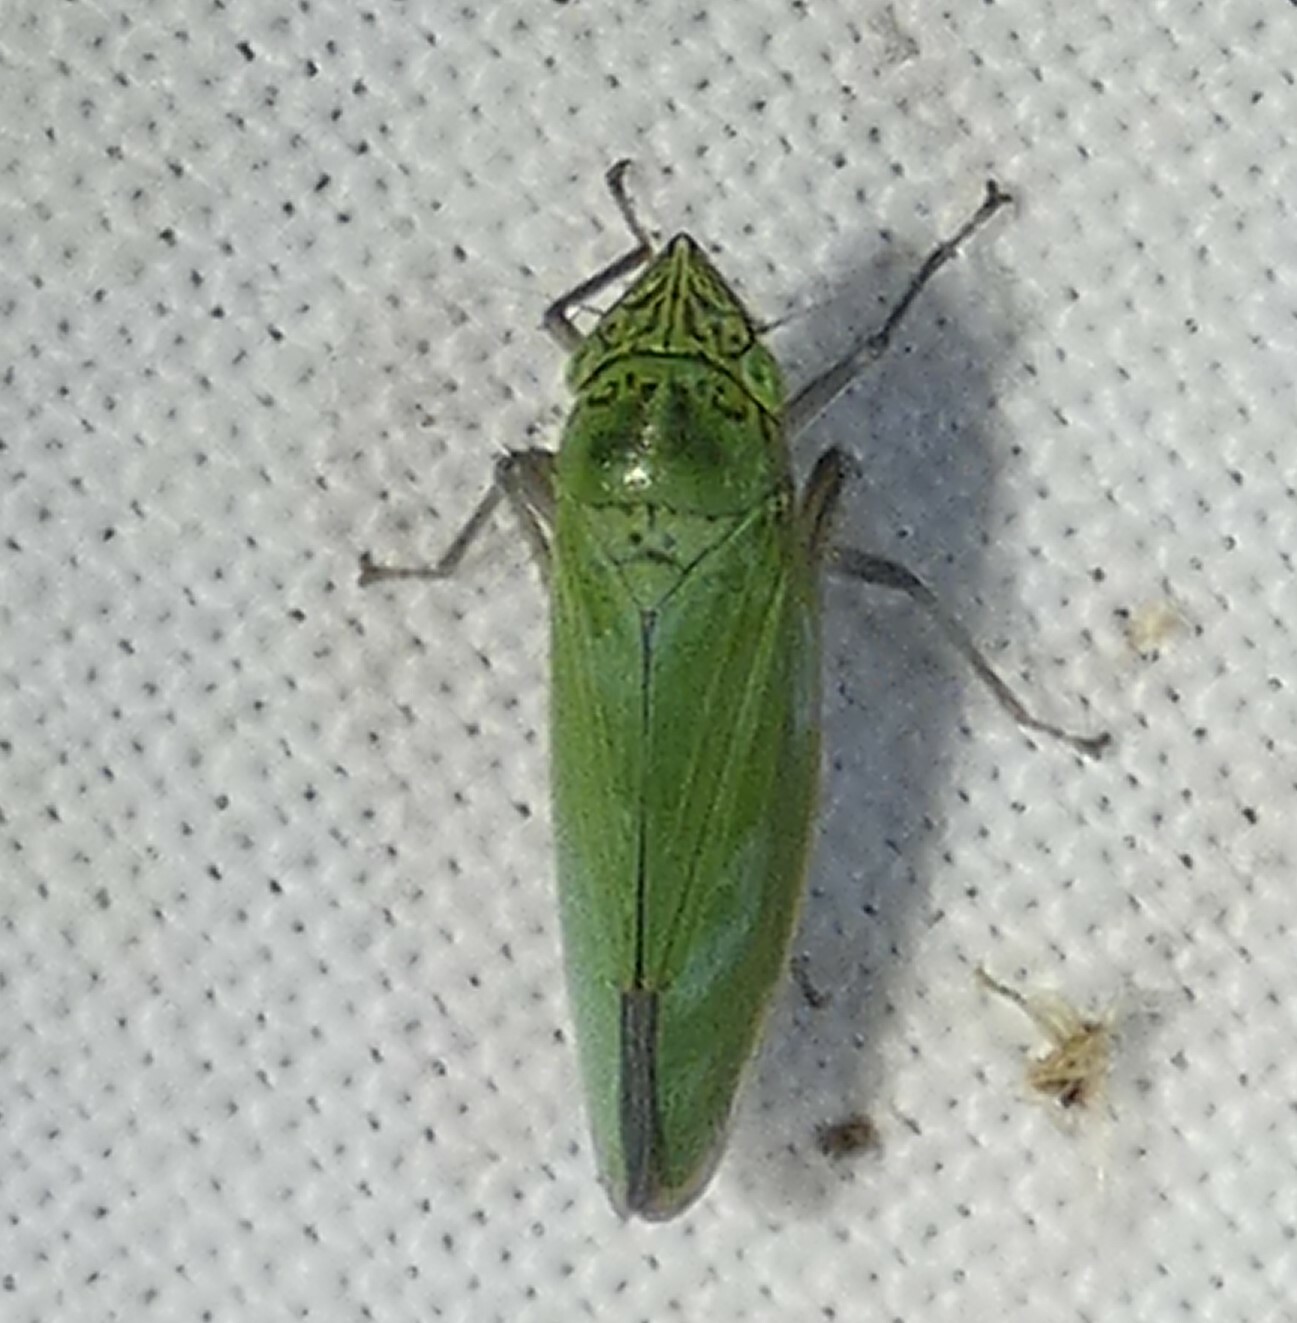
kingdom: Animalia
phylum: Arthropoda
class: Insecta
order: Hemiptera
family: Cicadellidae
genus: Draeculacephala
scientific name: Draeculacephala inscripta
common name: Leafhopper
